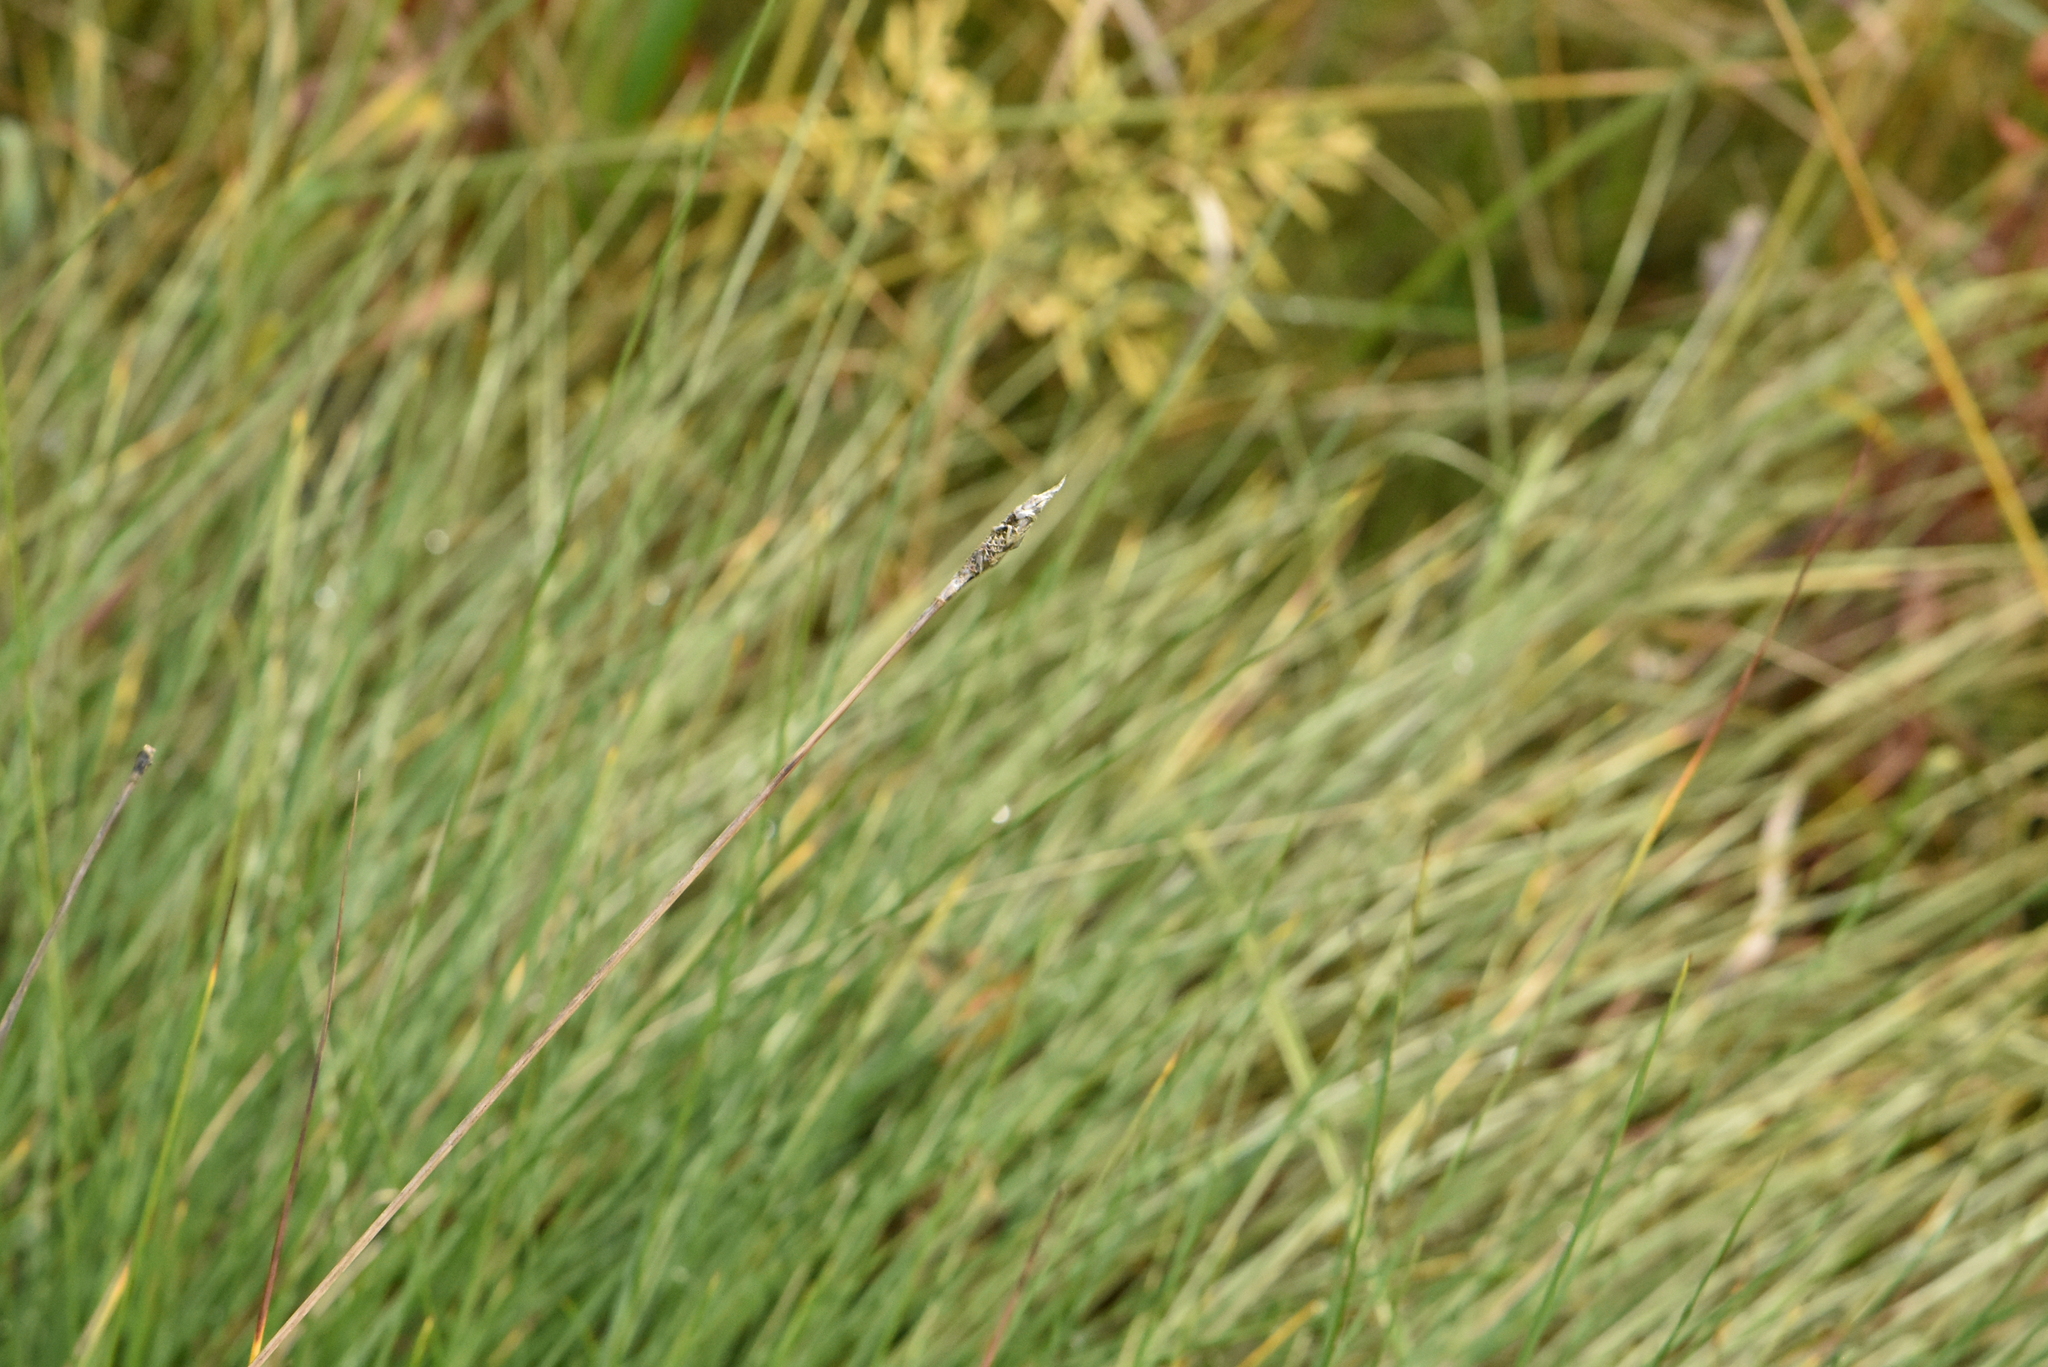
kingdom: Plantae
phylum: Tracheophyta
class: Liliopsida
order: Poales
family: Cyperaceae
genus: Eriophorum
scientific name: Eriophorum vaginatum
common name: Hare's-tail cottongrass
